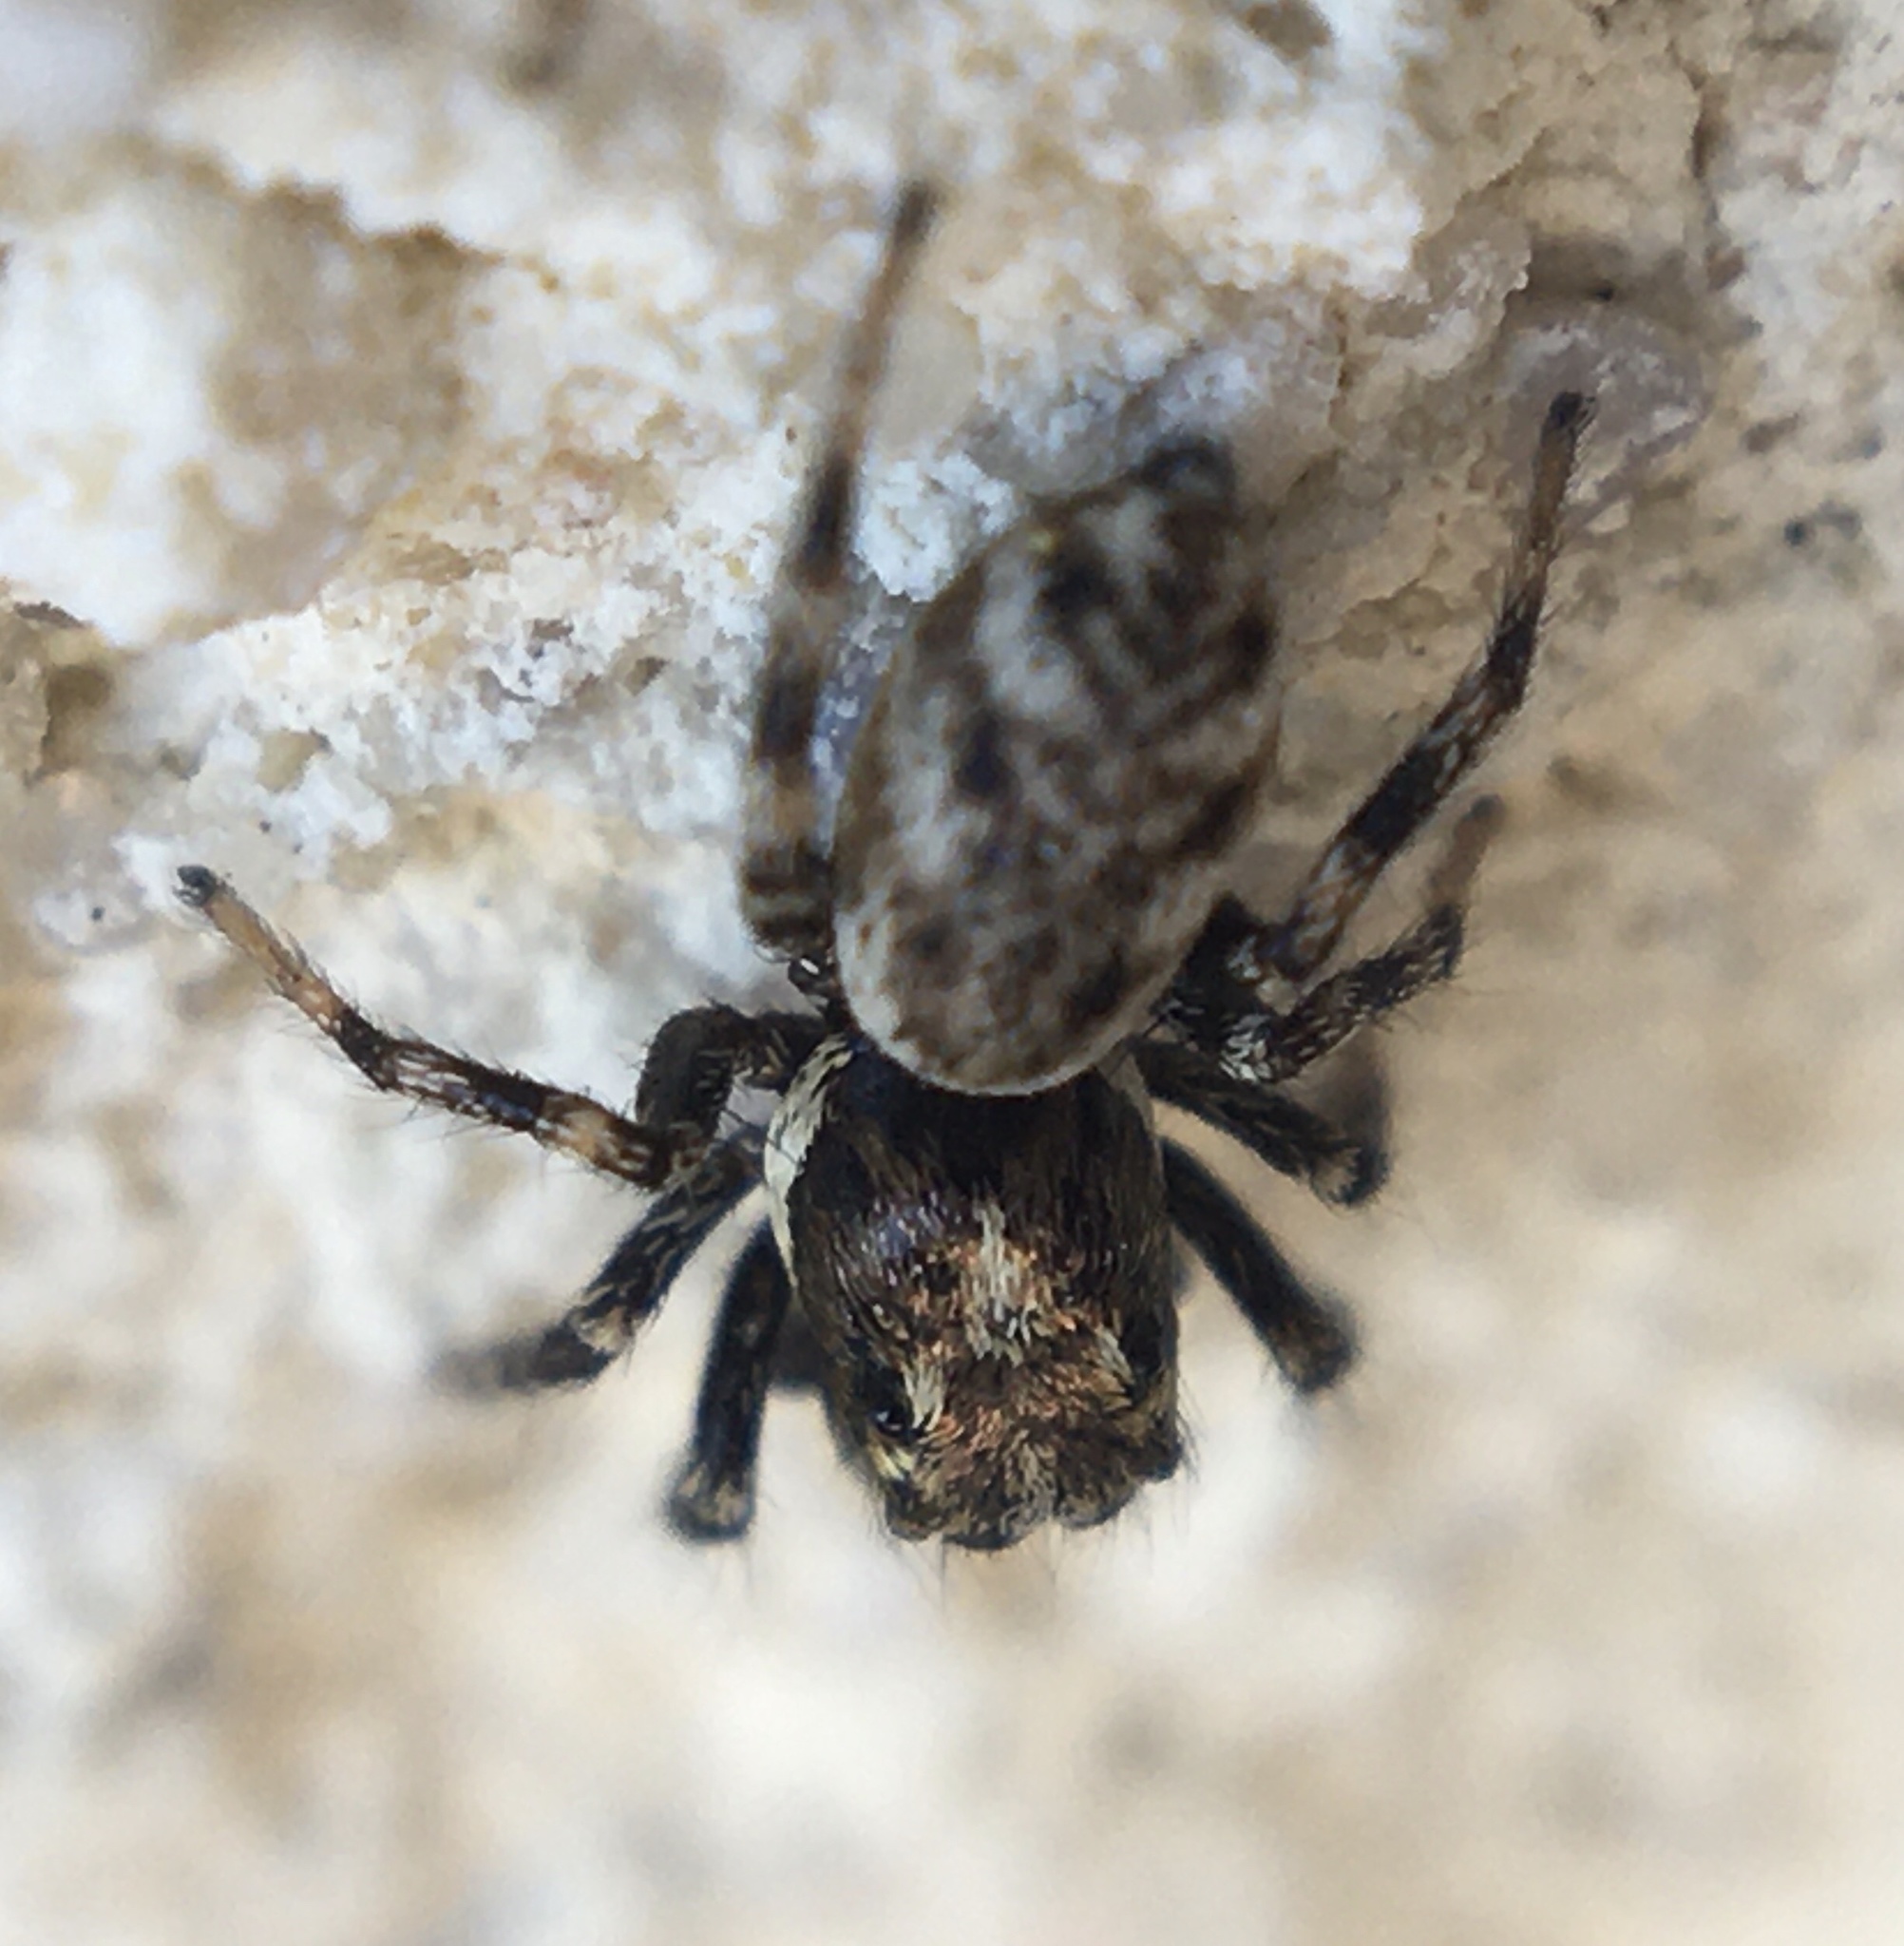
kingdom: Animalia
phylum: Arthropoda
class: Arachnida
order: Araneae
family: Salticidae
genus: Salticus
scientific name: Salticus
